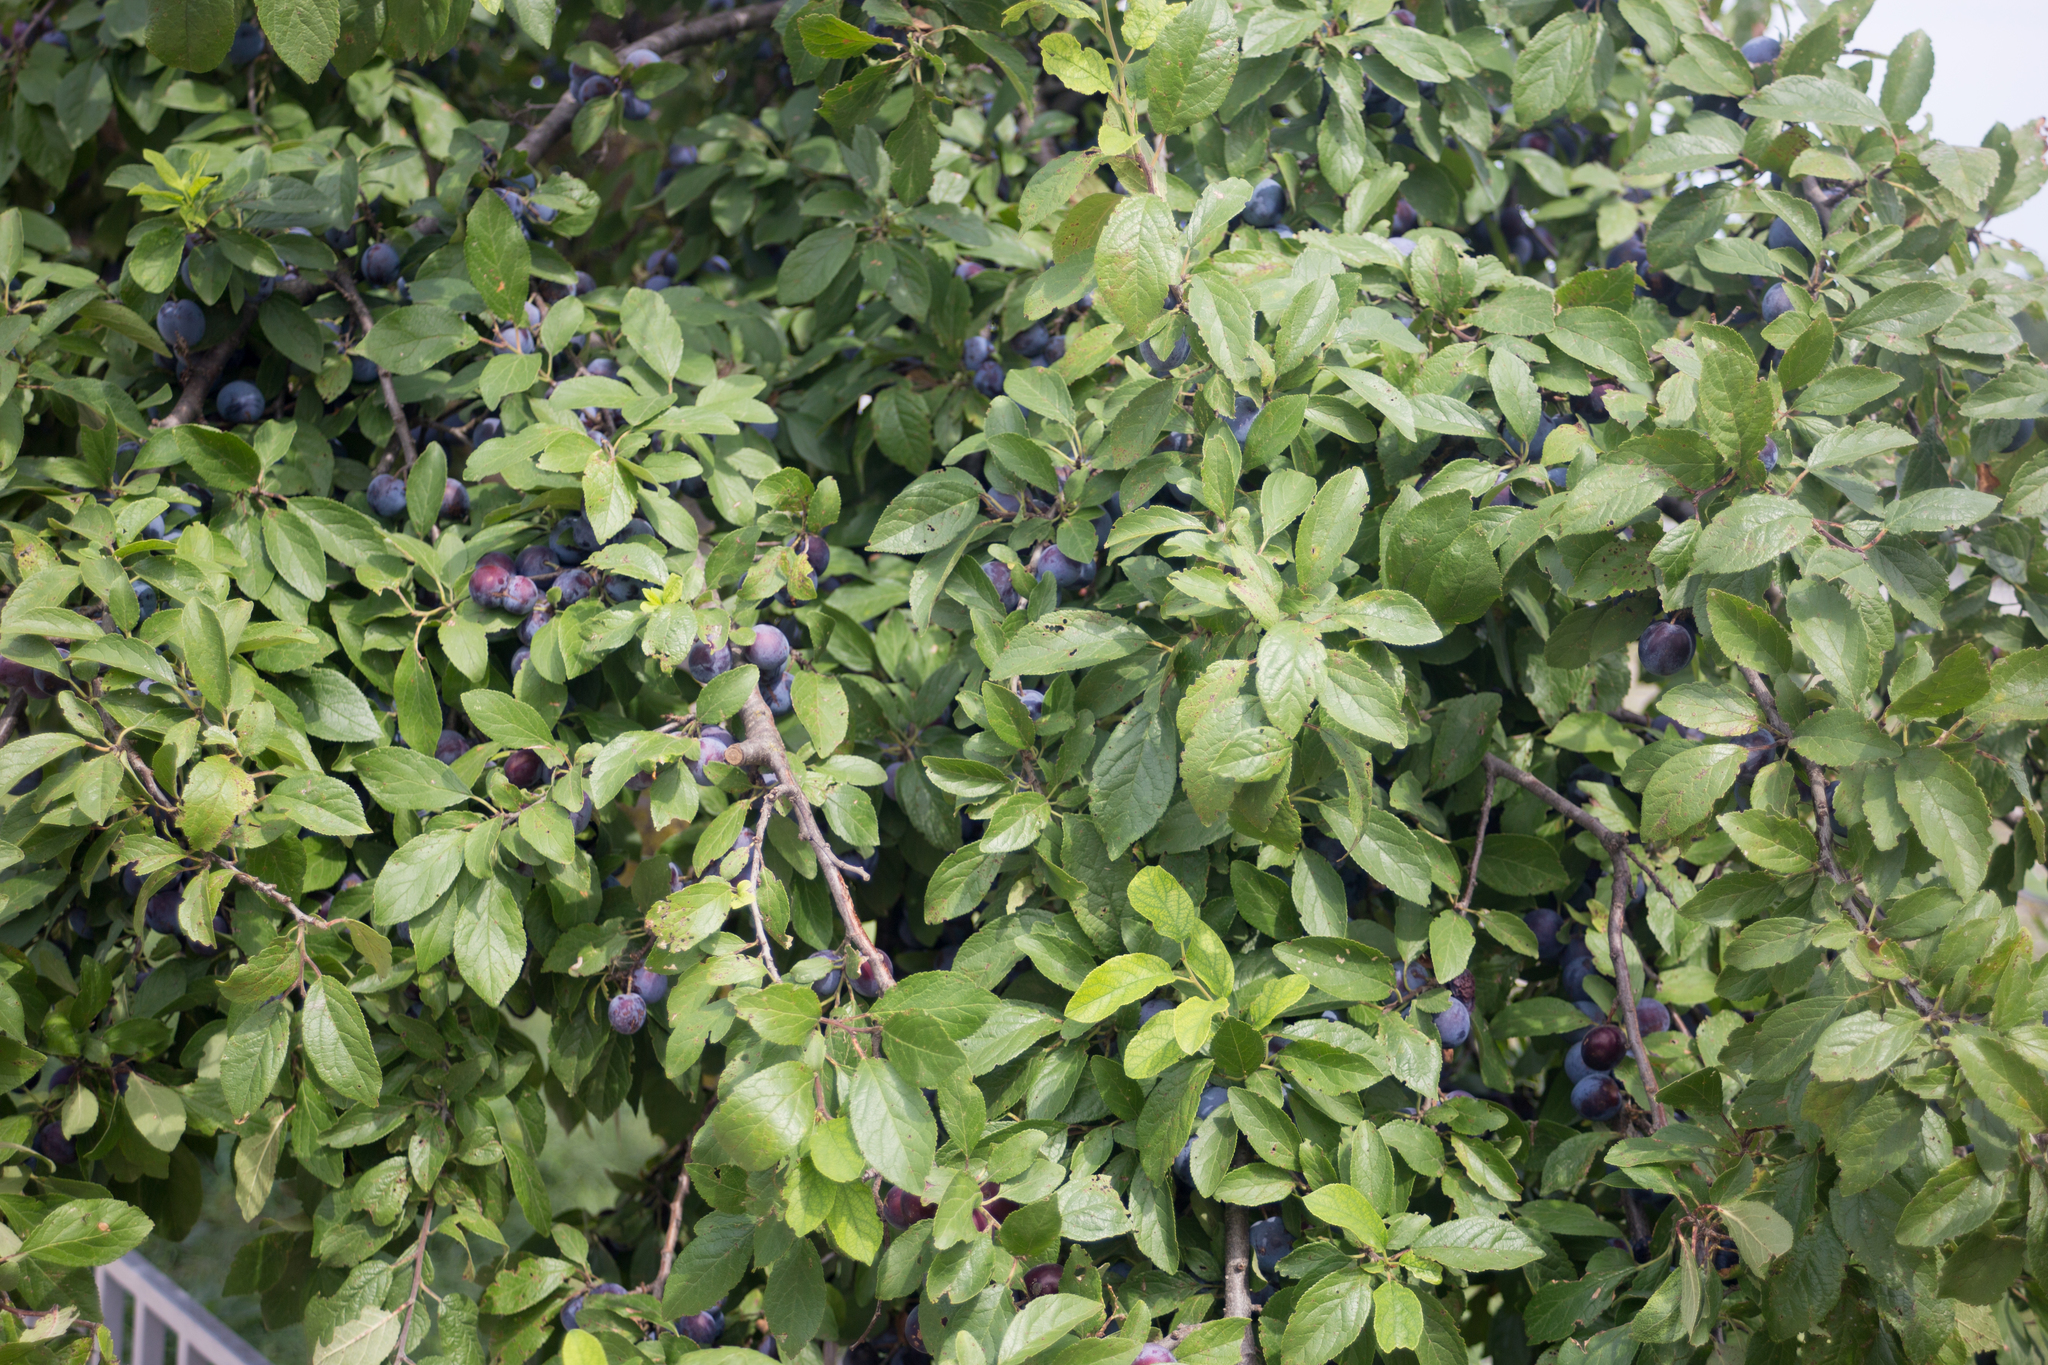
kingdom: Plantae
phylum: Tracheophyta
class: Magnoliopsida
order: Rosales
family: Rosaceae
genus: Prunus
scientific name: Prunus spinosa
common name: Blackthorn
